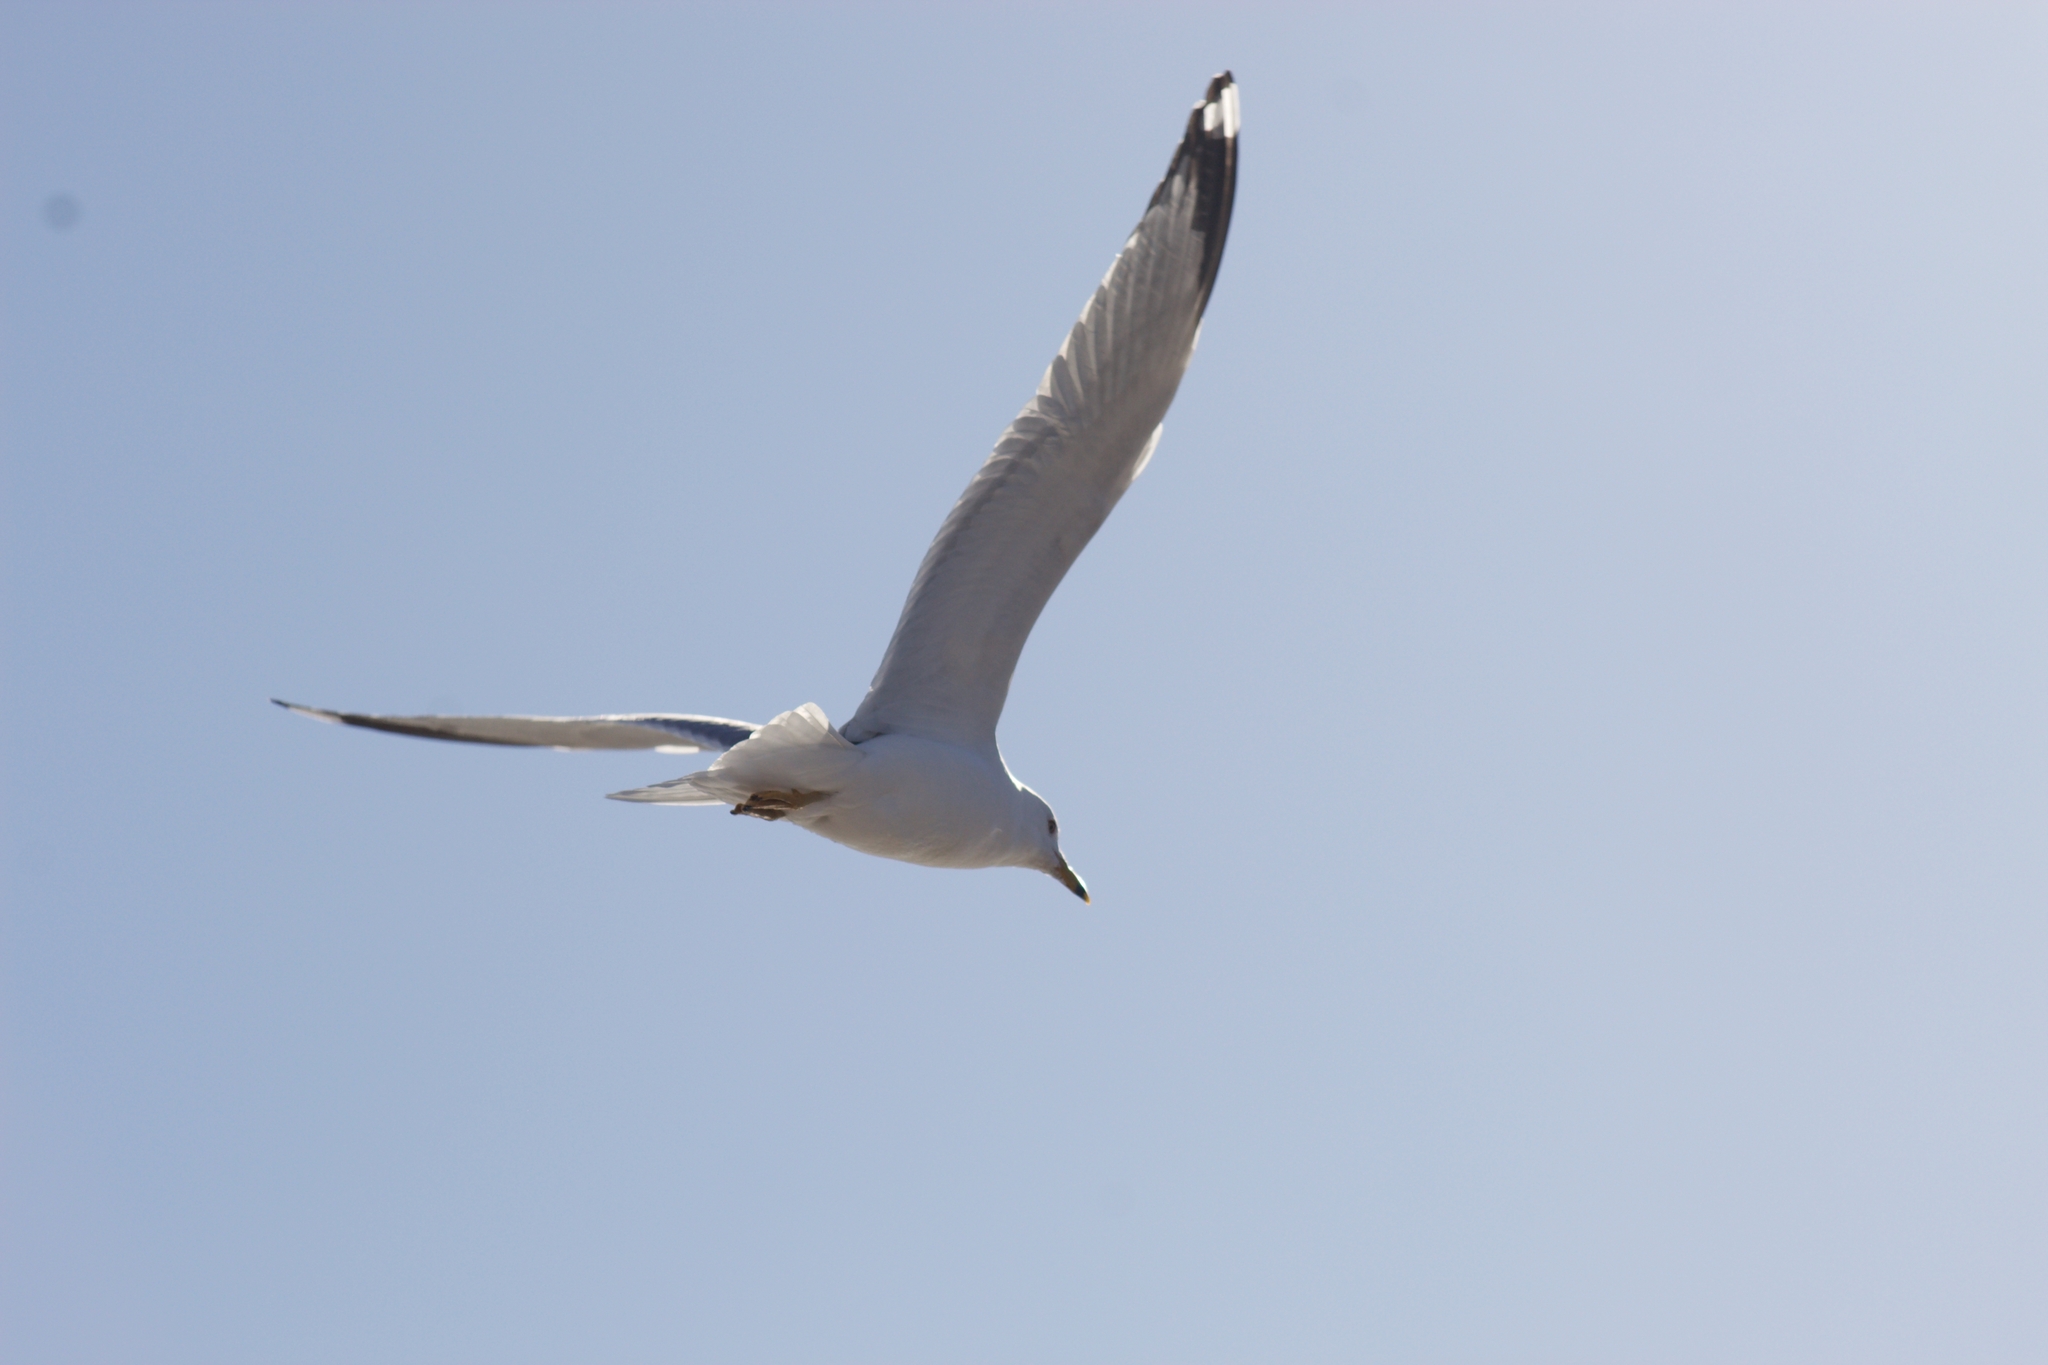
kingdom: Animalia
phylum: Chordata
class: Aves
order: Charadriiformes
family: Laridae
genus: Larus
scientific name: Larus delawarensis
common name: Ring-billed gull
